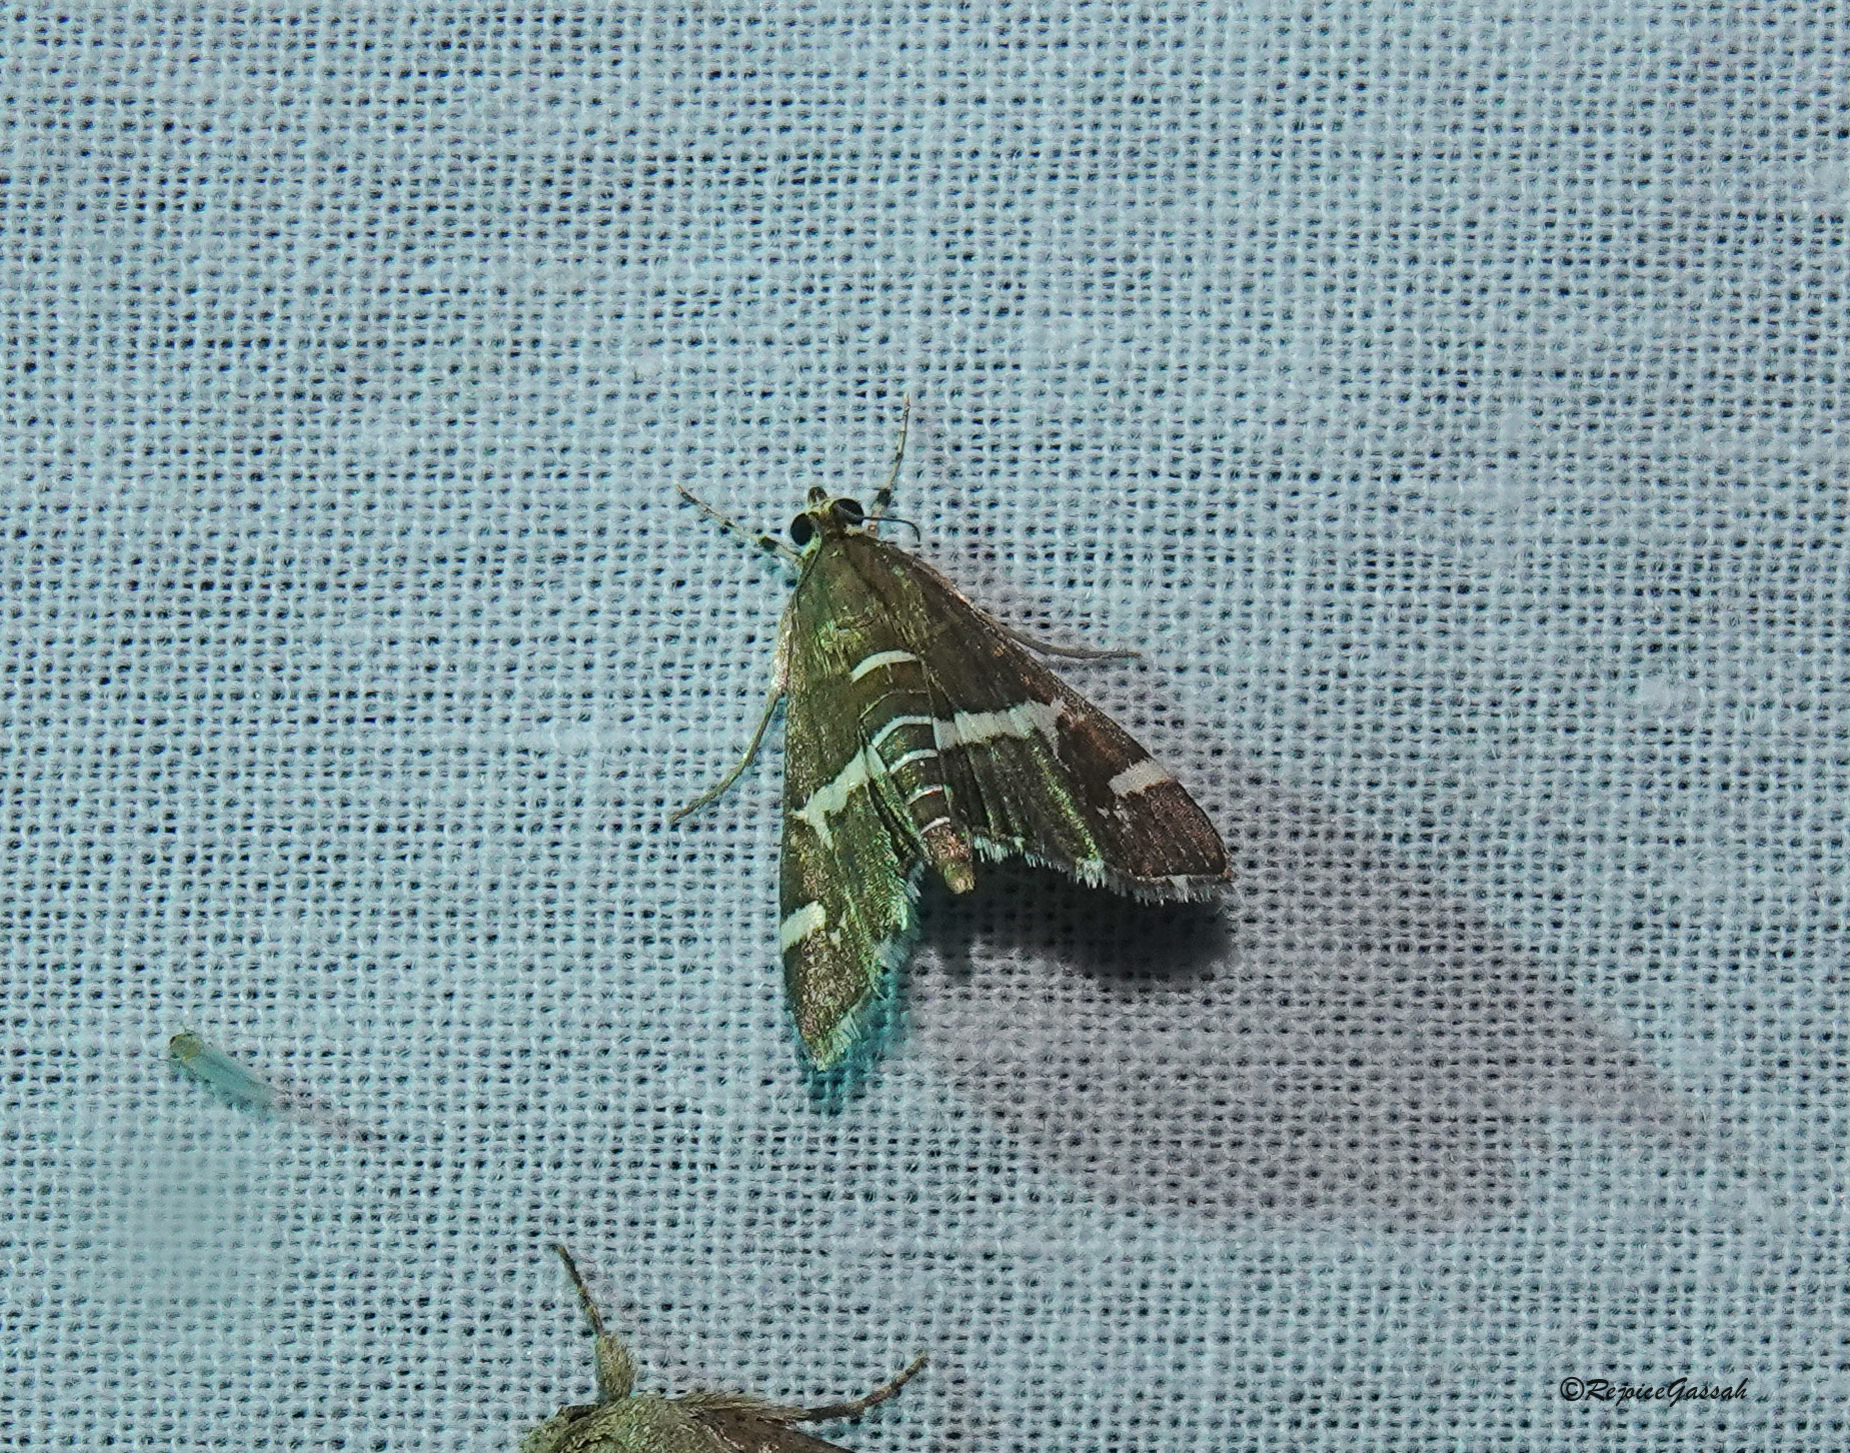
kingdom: Animalia
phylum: Arthropoda
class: Insecta
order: Lepidoptera
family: Crambidae
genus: Spoladea
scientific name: Spoladea recurvalis
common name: Beet webworm moth
